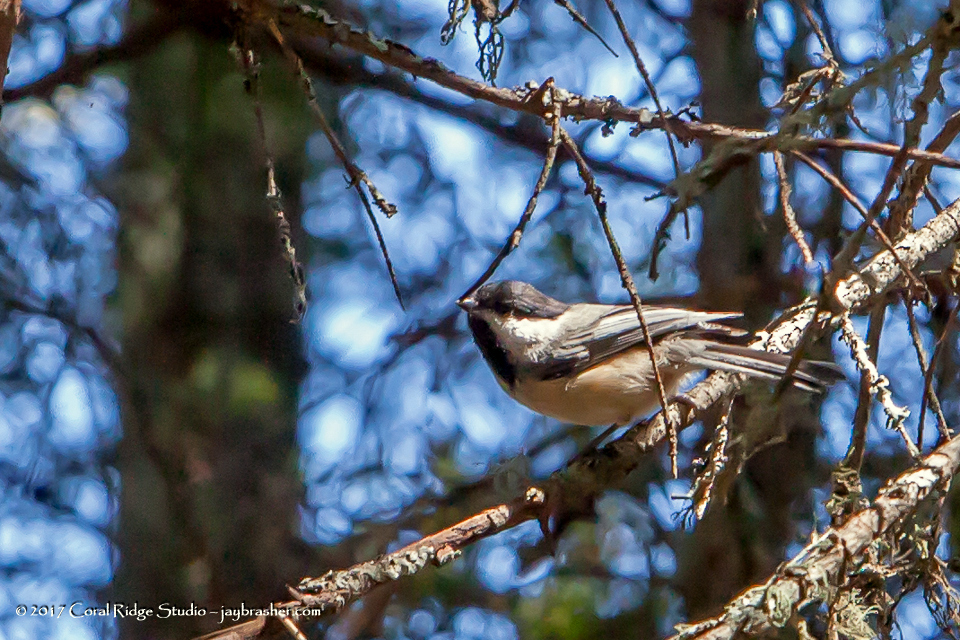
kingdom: Animalia
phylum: Chordata
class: Aves
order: Passeriformes
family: Paridae
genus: Poecile
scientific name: Poecile atricapillus
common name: Black-capped chickadee
